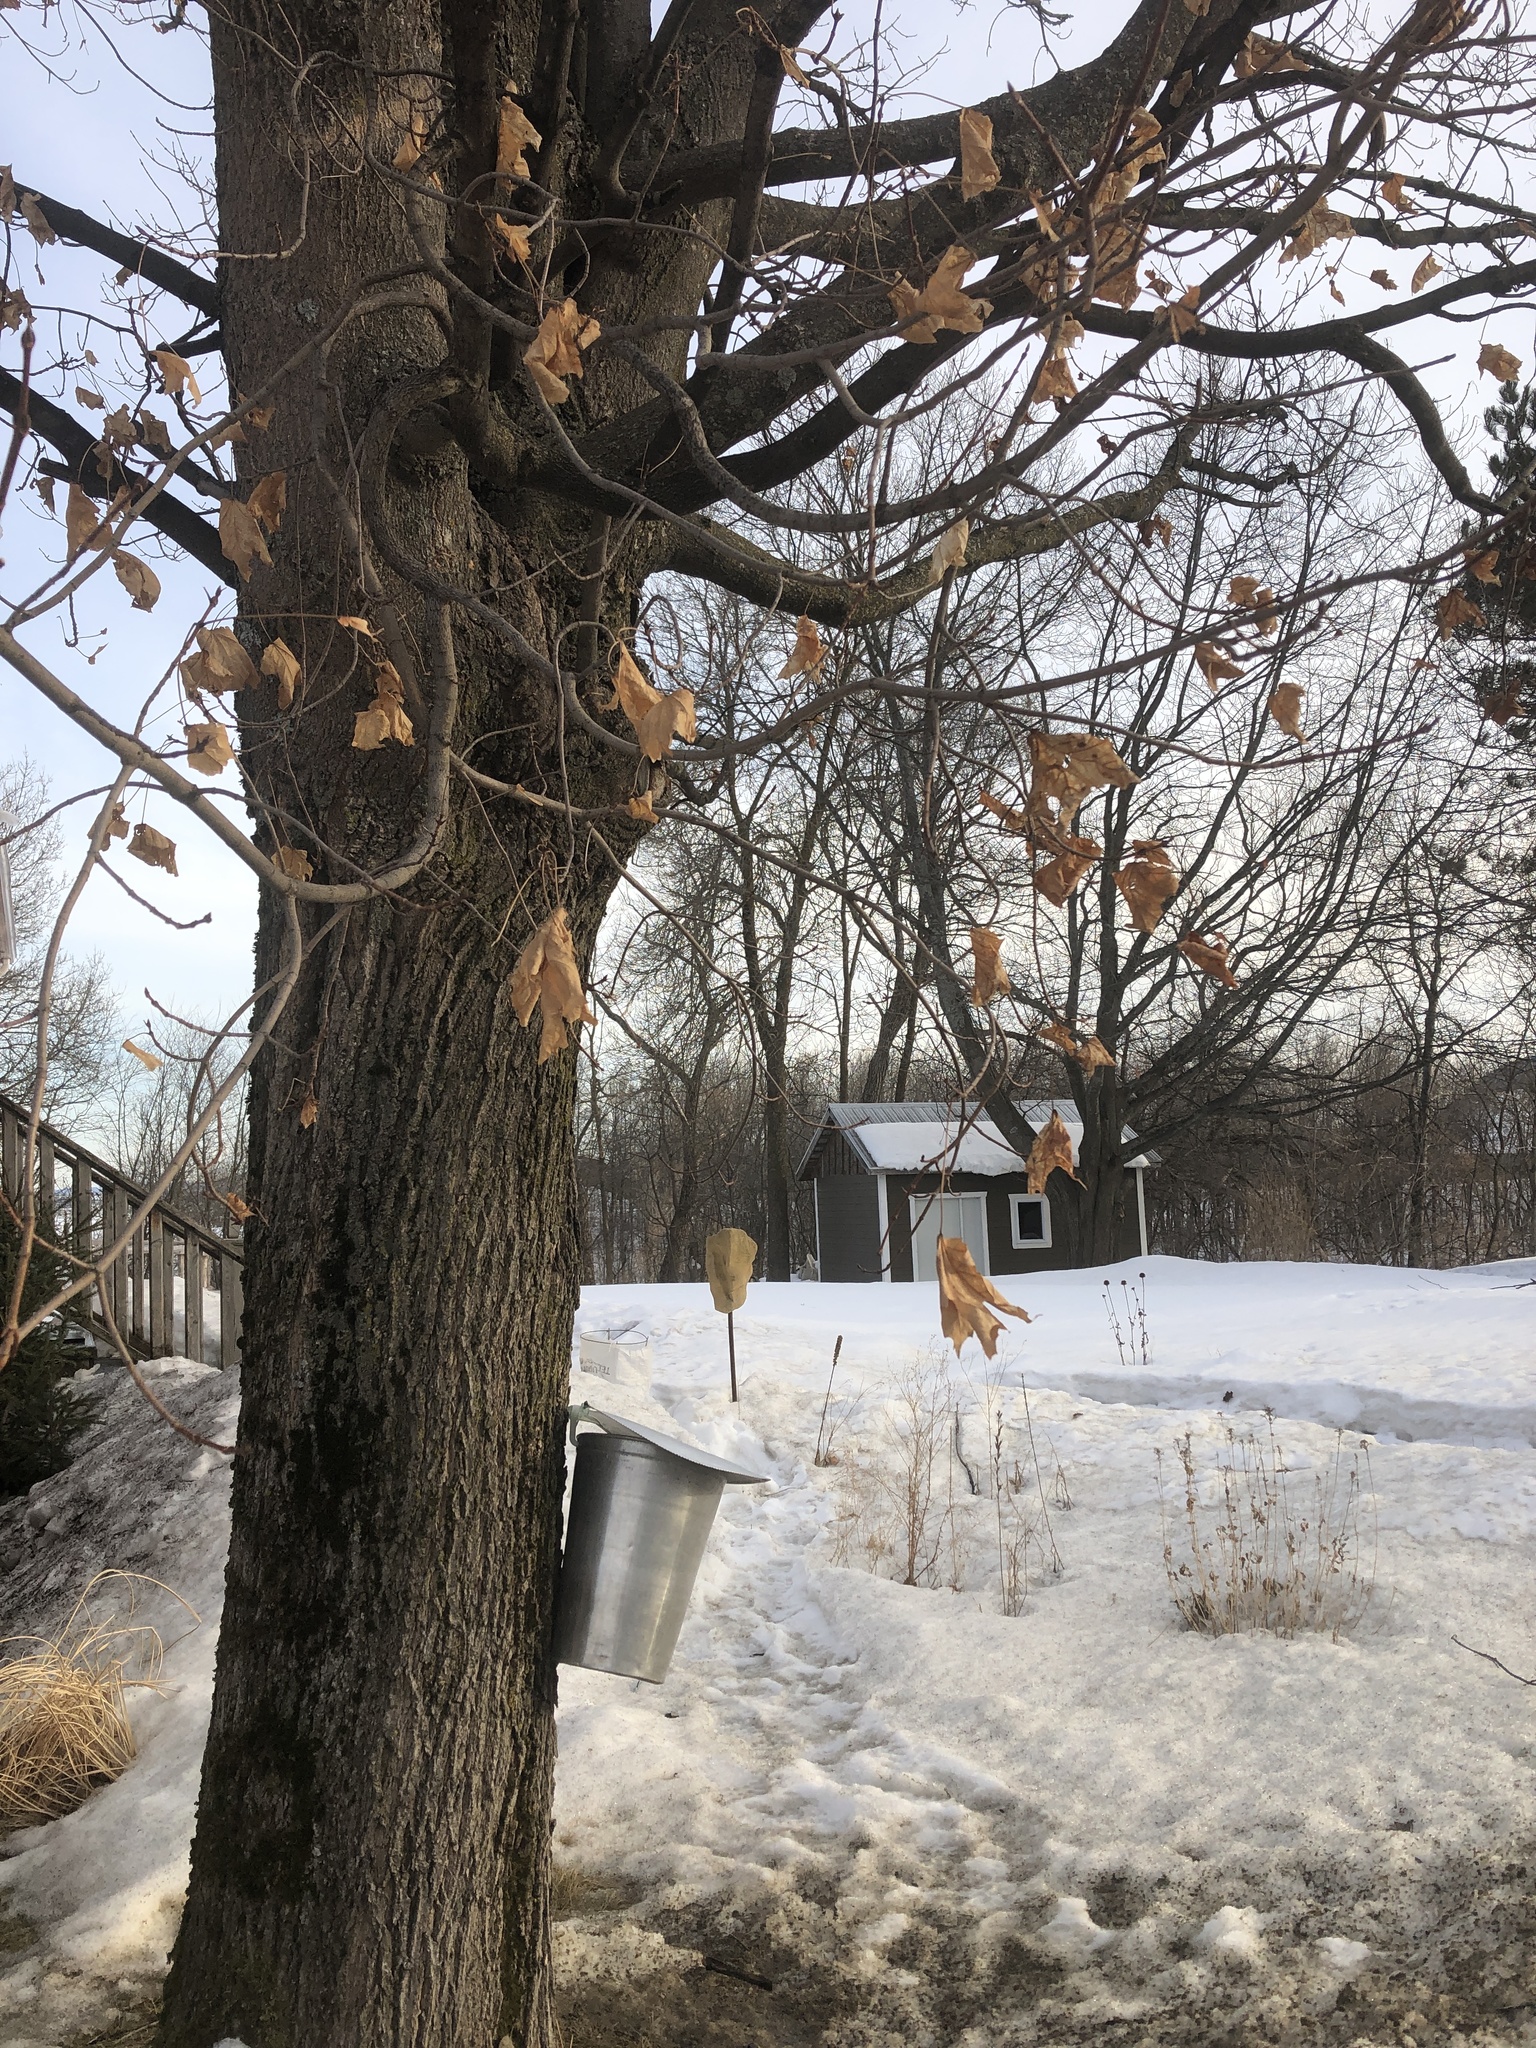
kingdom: Plantae
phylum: Tracheophyta
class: Magnoliopsida
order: Sapindales
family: Sapindaceae
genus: Acer
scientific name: Acer saccharum
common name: Sugar maple
